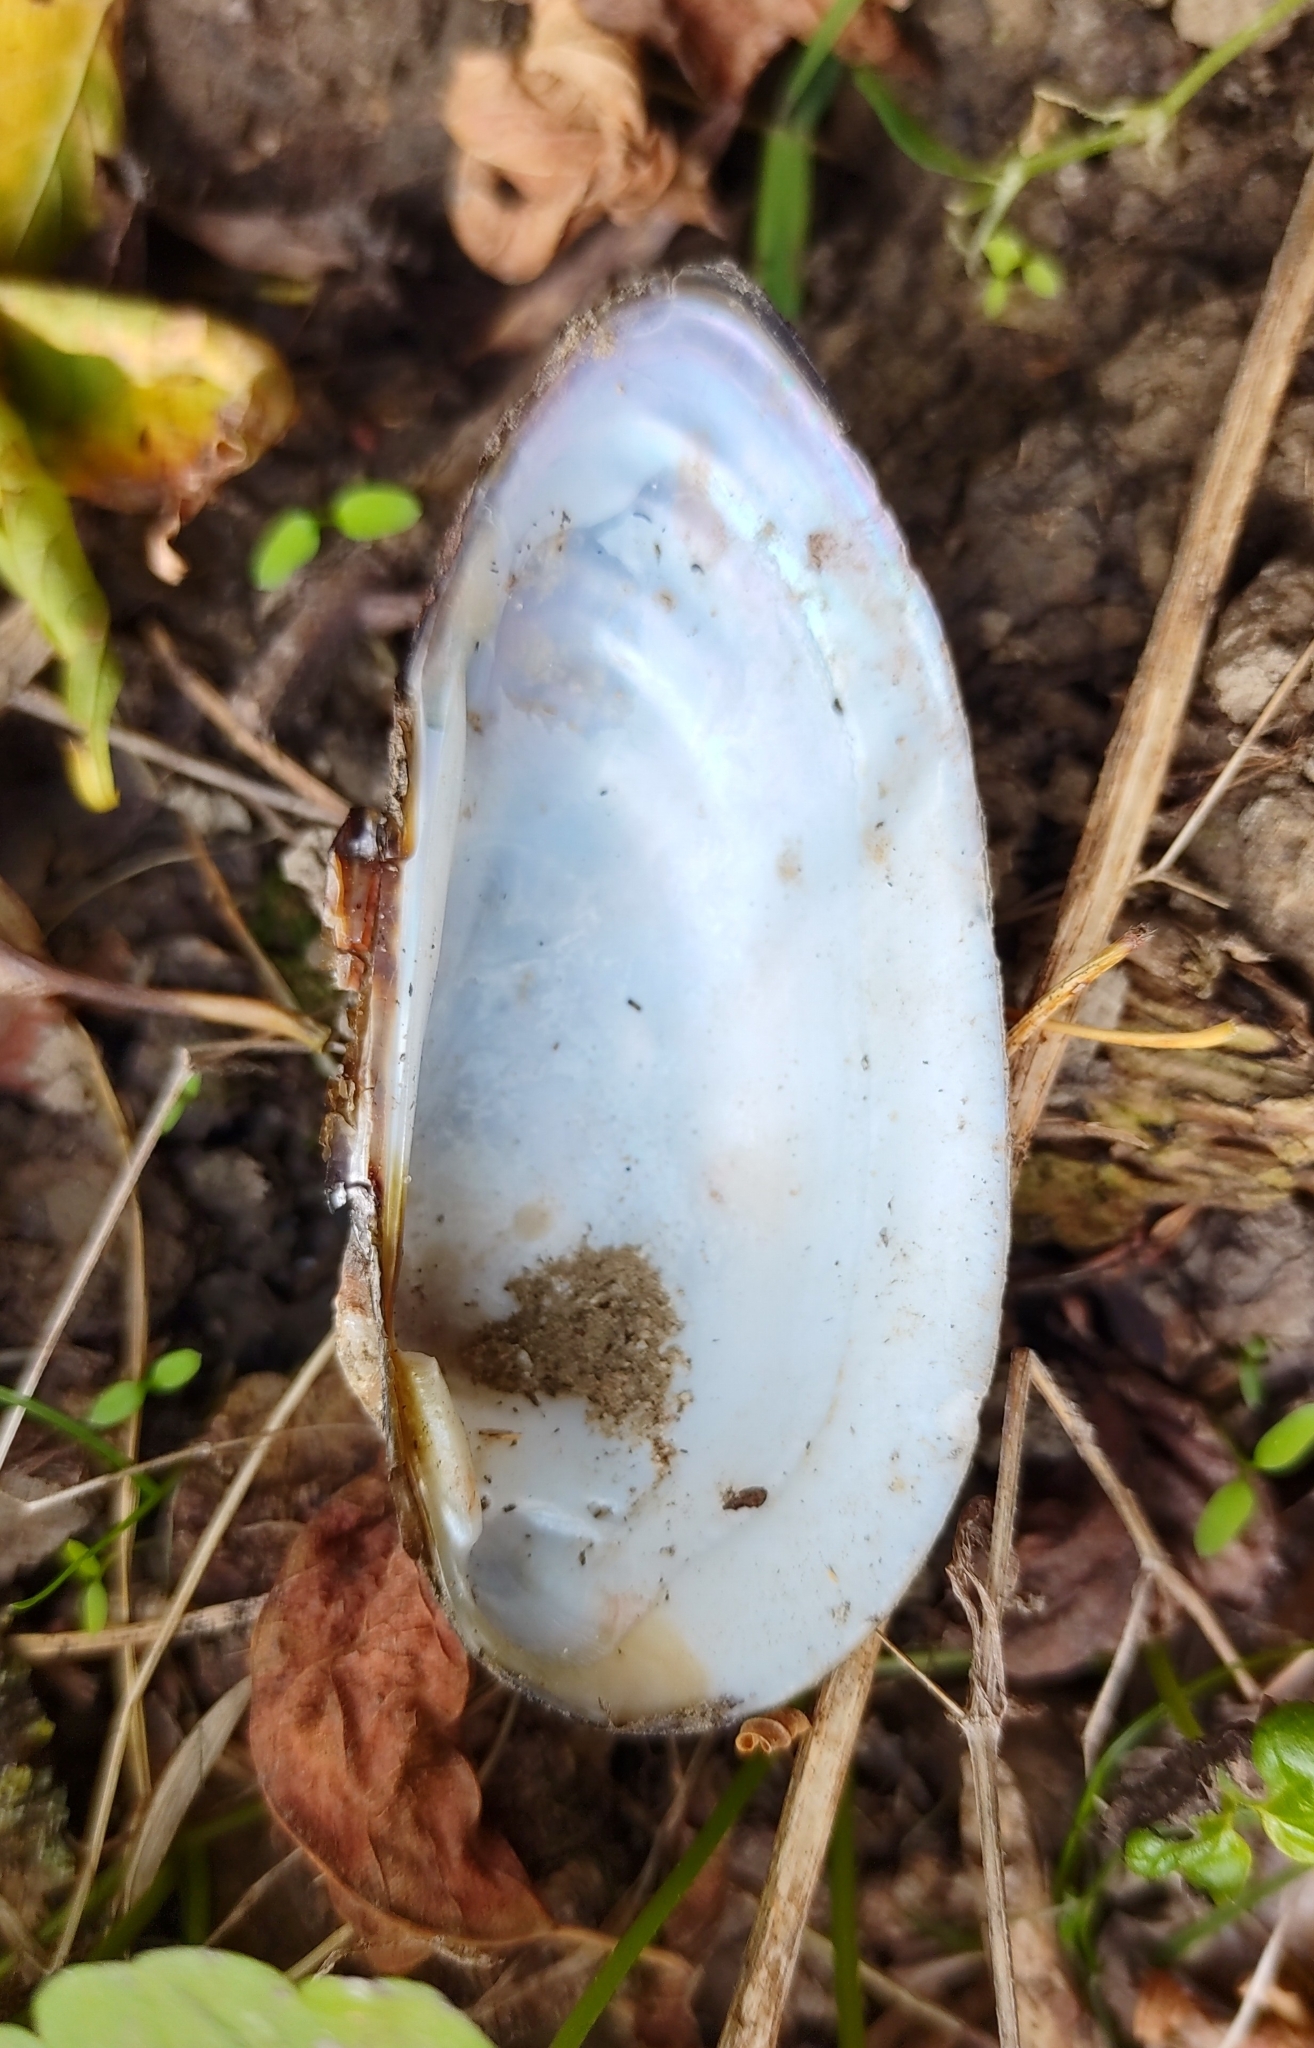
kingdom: Animalia
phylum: Mollusca
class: Bivalvia
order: Unionida
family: Unionidae
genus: Unio
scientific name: Unio pictorum
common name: Painter's mussel
